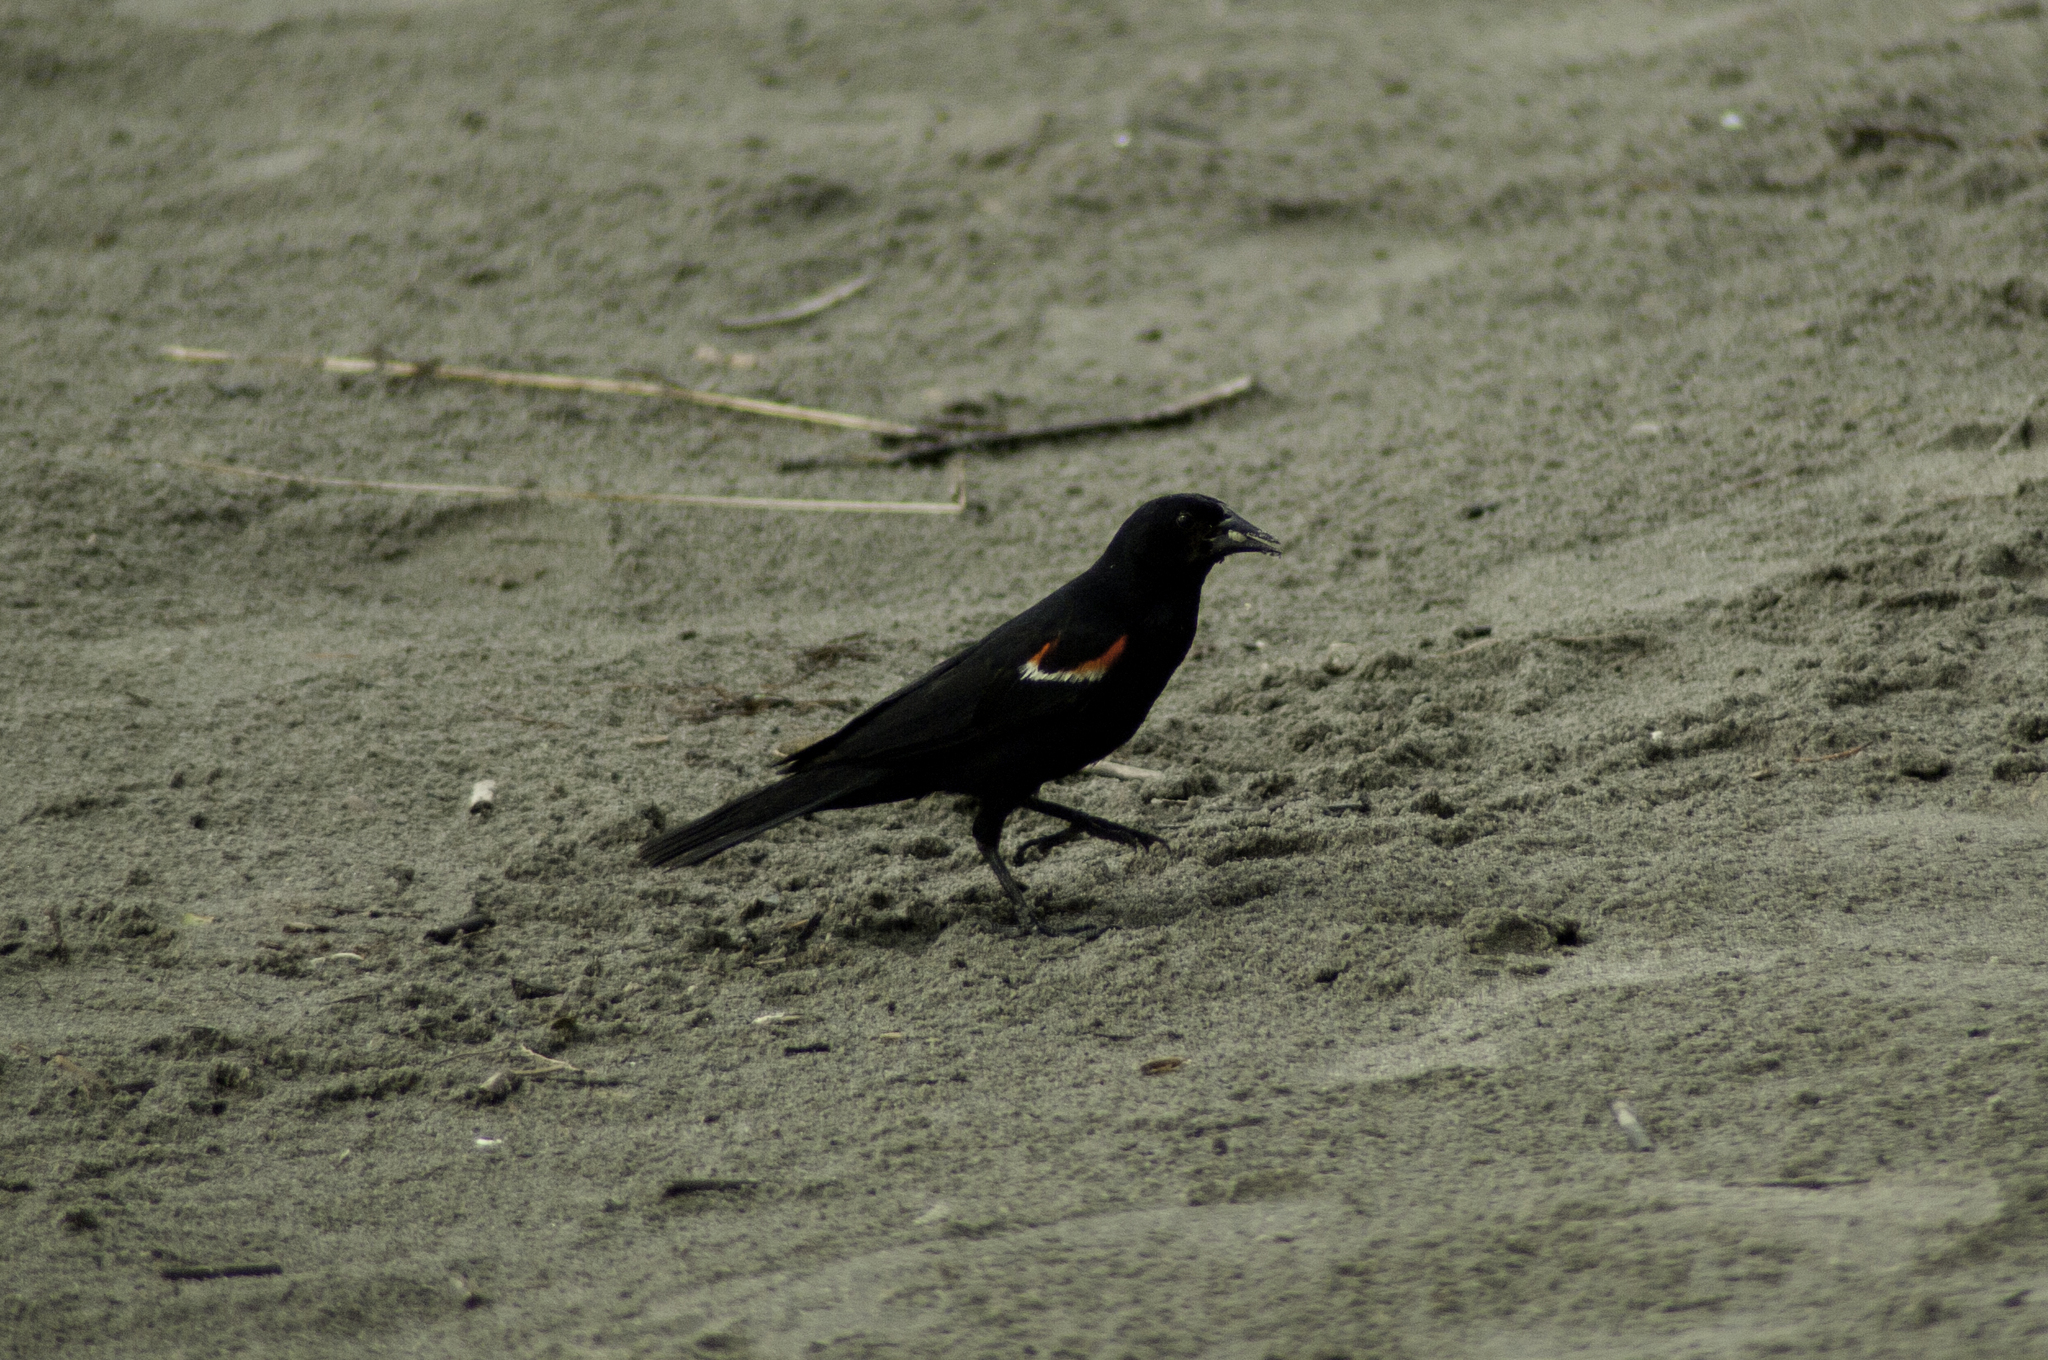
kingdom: Animalia
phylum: Chordata
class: Aves
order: Passeriformes
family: Icteridae
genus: Agelaius
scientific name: Agelaius phoeniceus
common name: Red-winged blackbird
